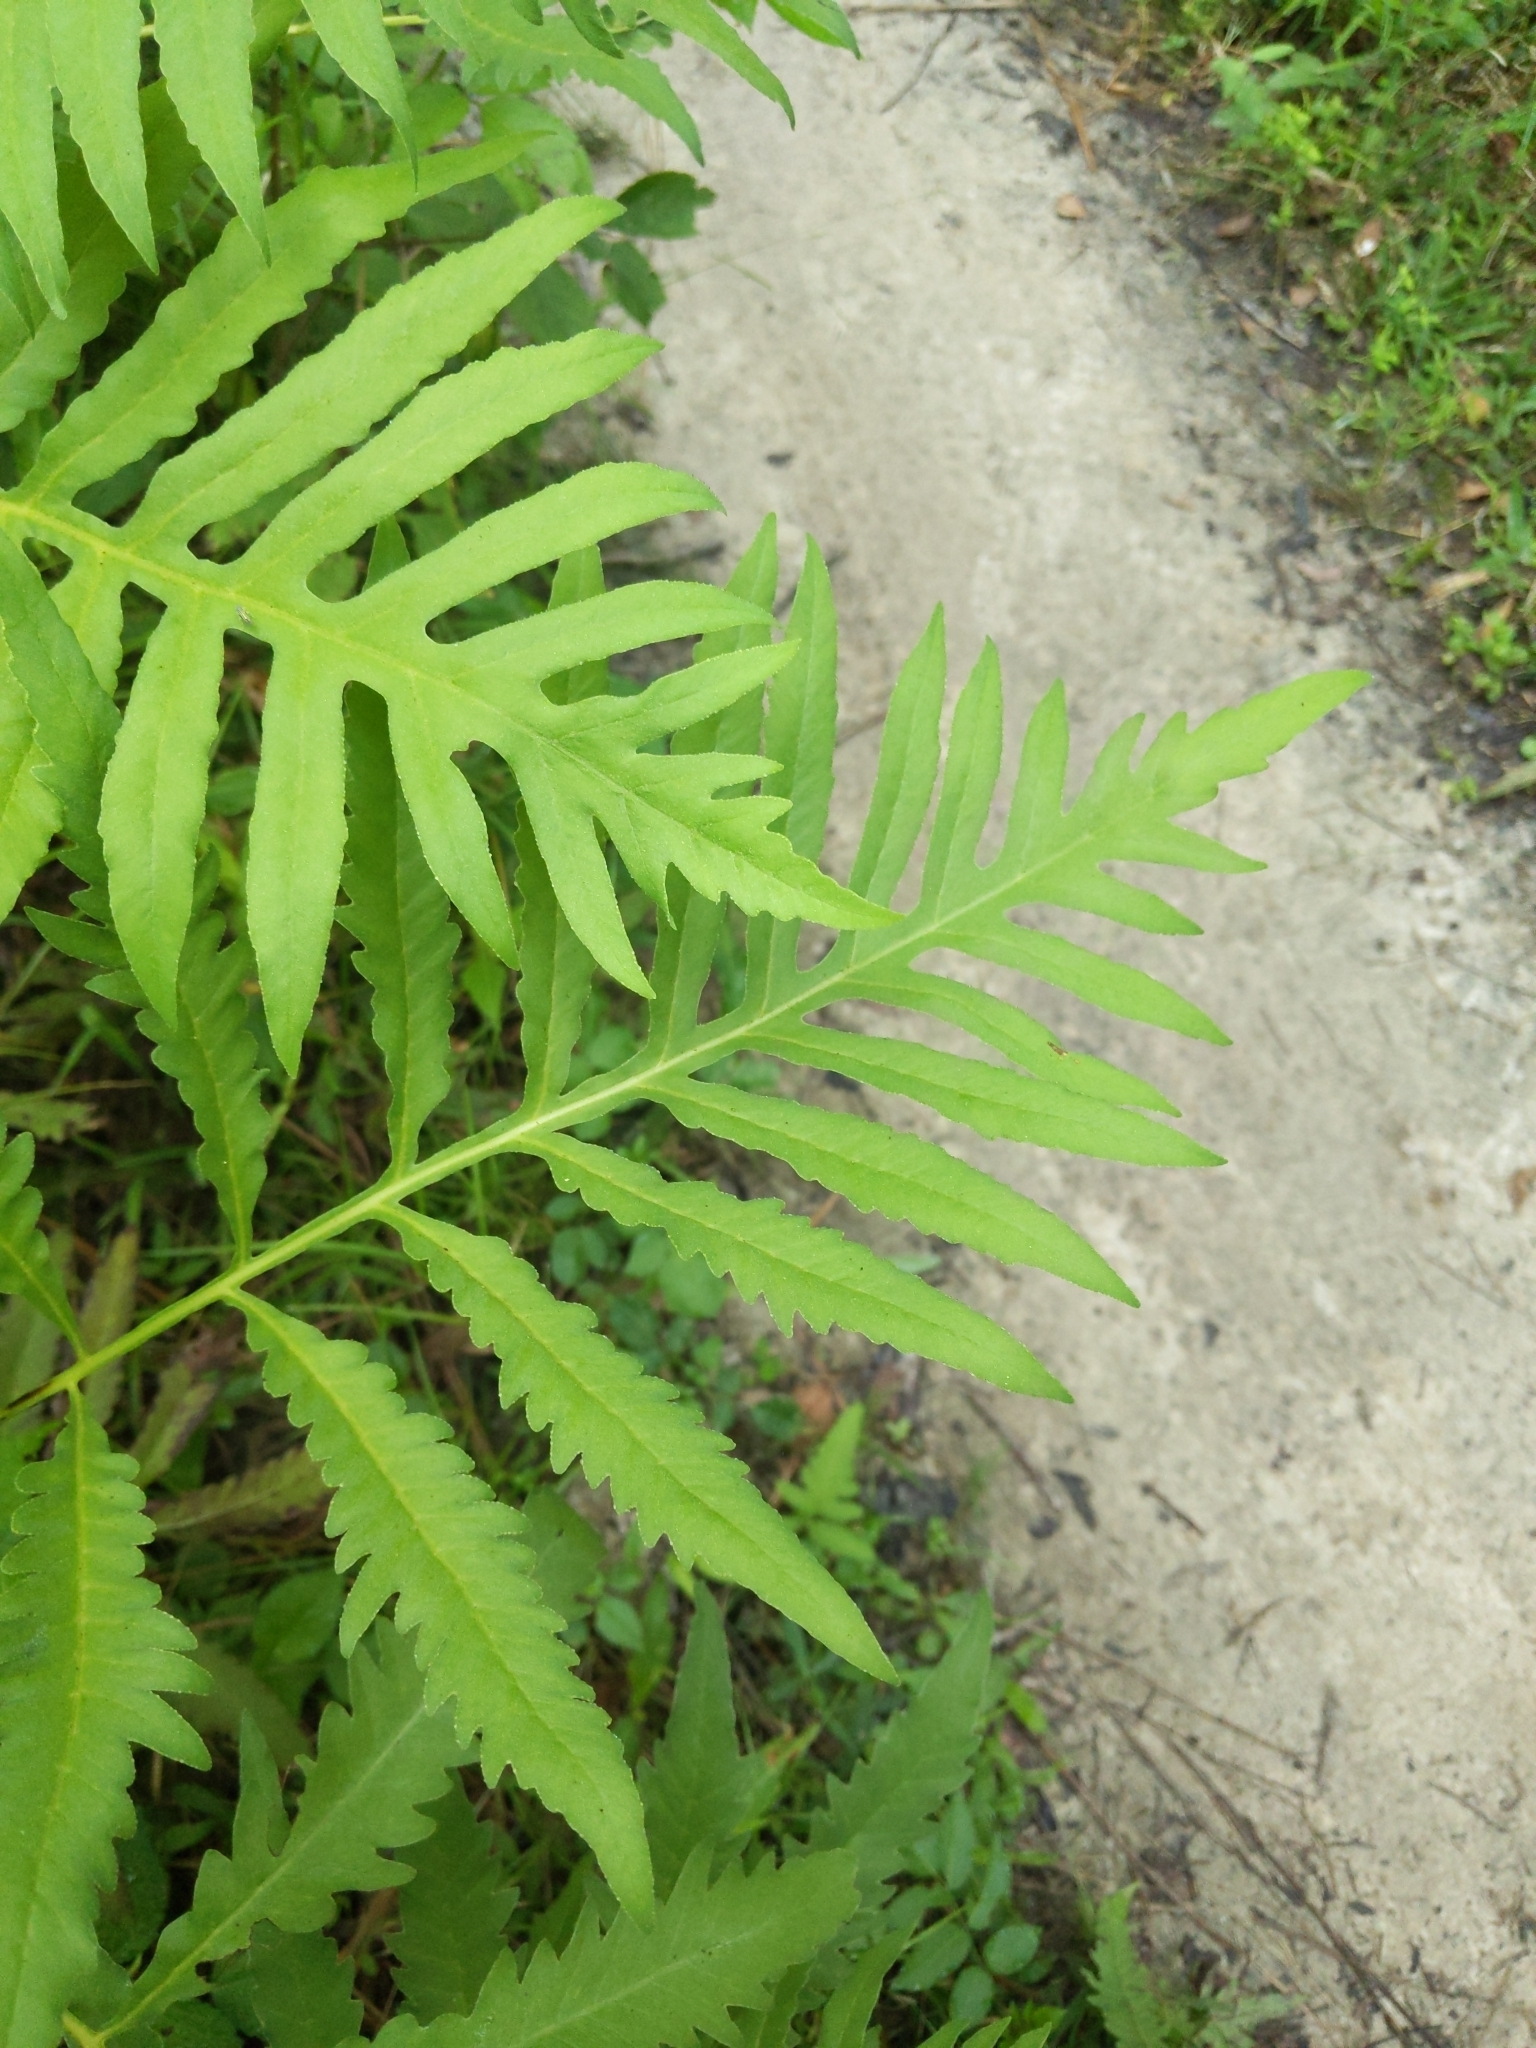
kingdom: Plantae
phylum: Tracheophyta
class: Polypodiopsida
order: Polypodiales
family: Onocleaceae
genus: Onoclea
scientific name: Onoclea sensibilis
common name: Sensitive fern
